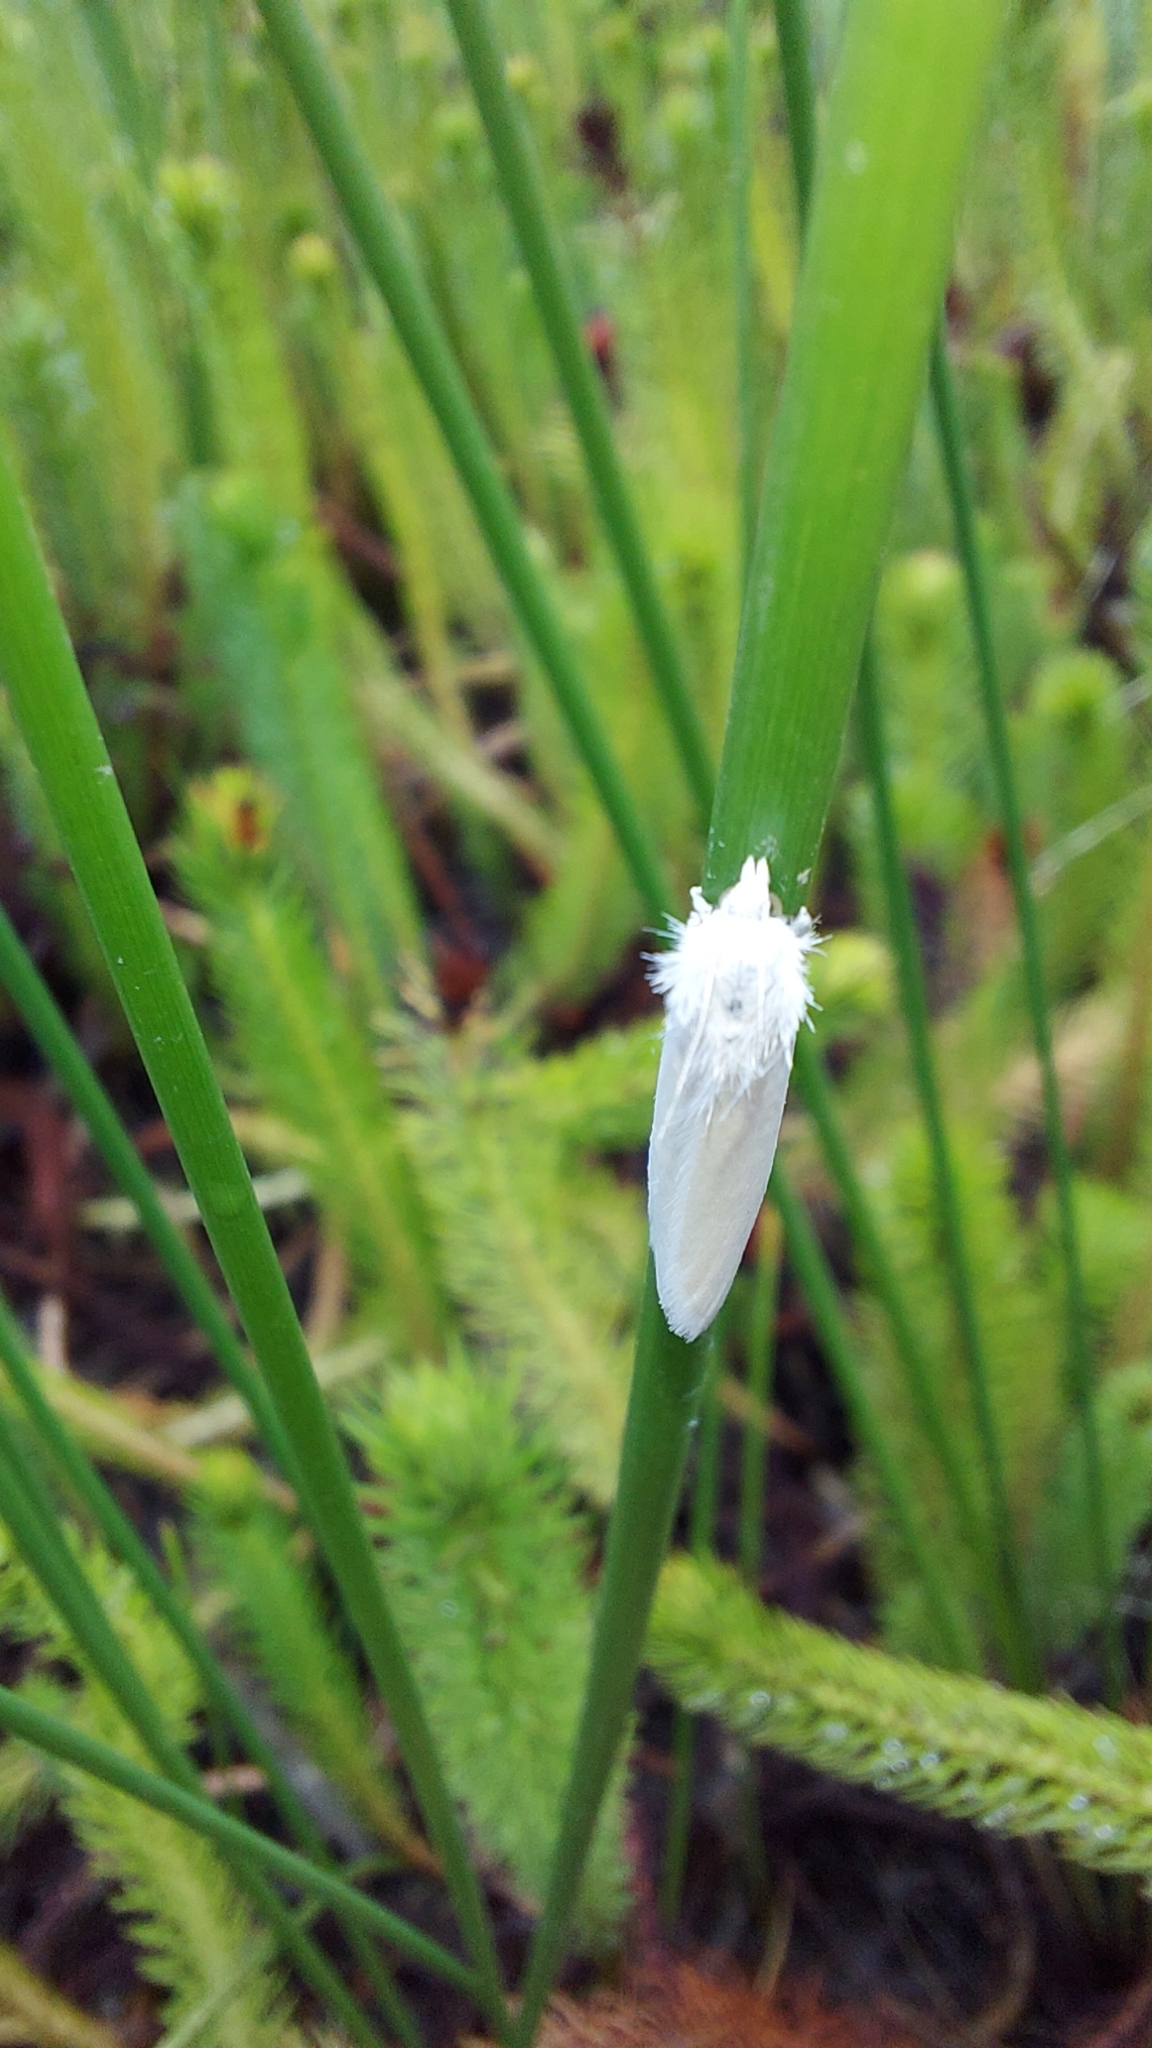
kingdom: Animalia
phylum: Arthropoda
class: Insecta
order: Lepidoptera
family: Crambidae
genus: Tipanaea
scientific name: Tipanaea patulella
